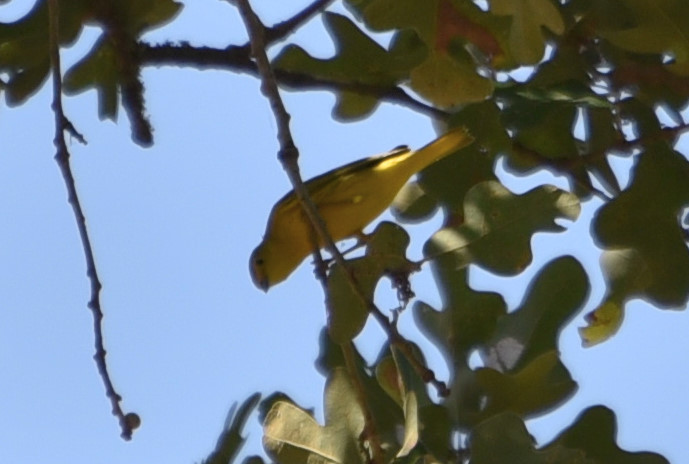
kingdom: Animalia
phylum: Chordata
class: Aves
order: Passeriformes
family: Parulidae
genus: Setophaga
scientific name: Setophaga petechia
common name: Yellow warbler
